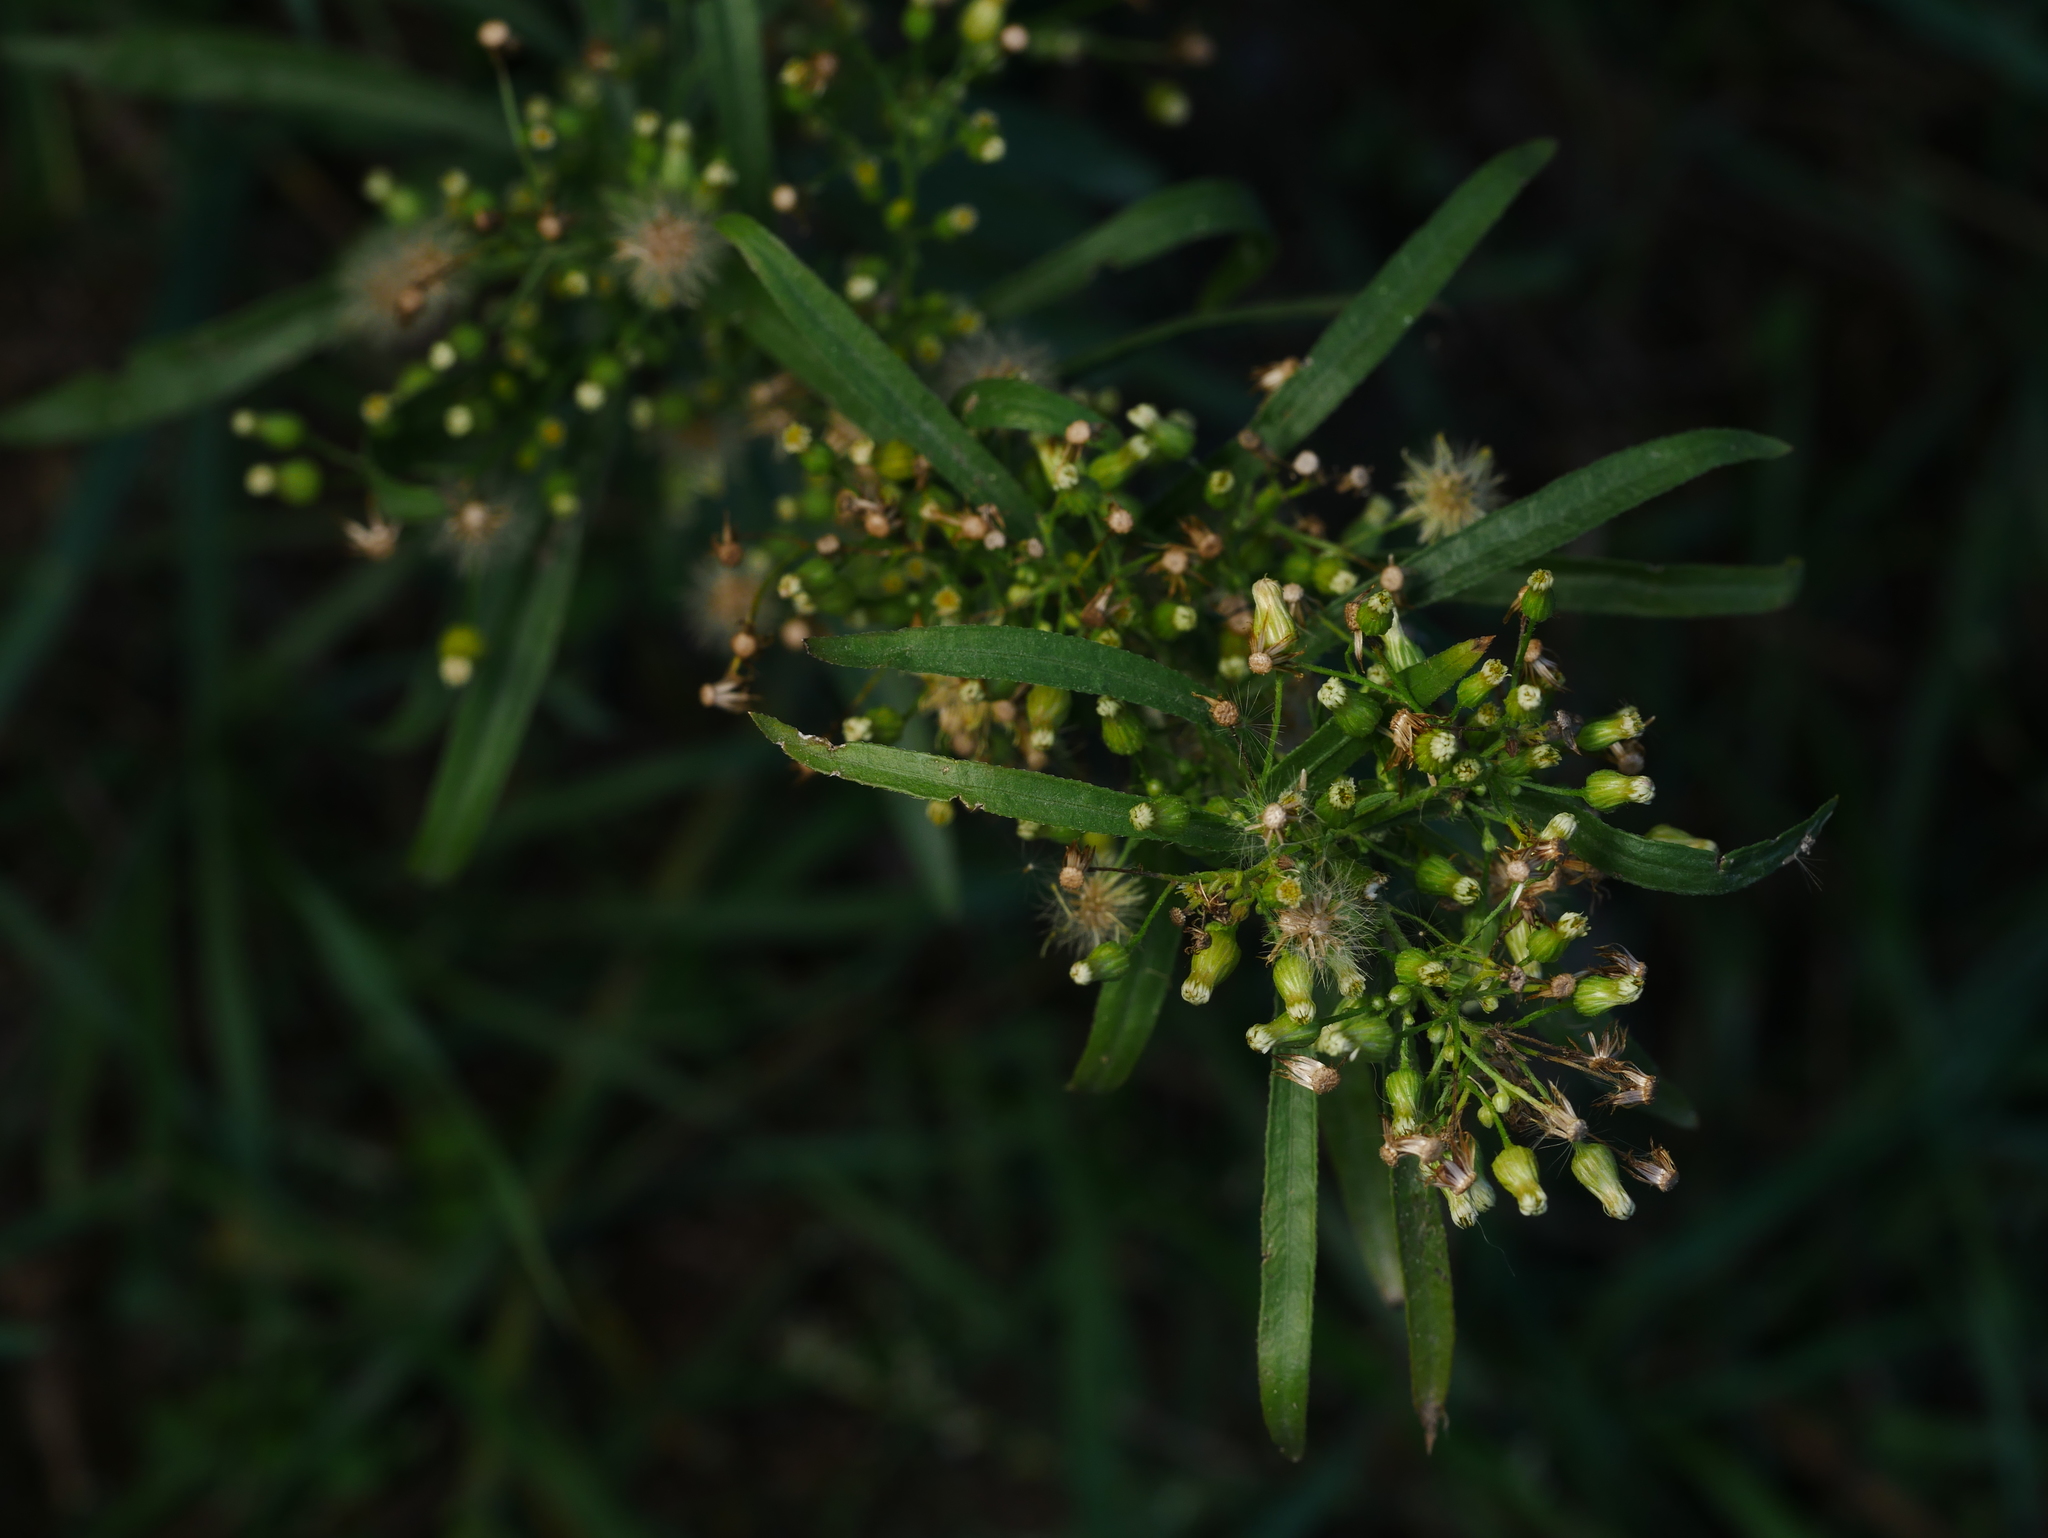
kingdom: Plantae
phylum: Tracheophyta
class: Magnoliopsida
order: Asterales
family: Asteraceae
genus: Erigeron
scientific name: Erigeron canadensis
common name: Canadian fleabane
